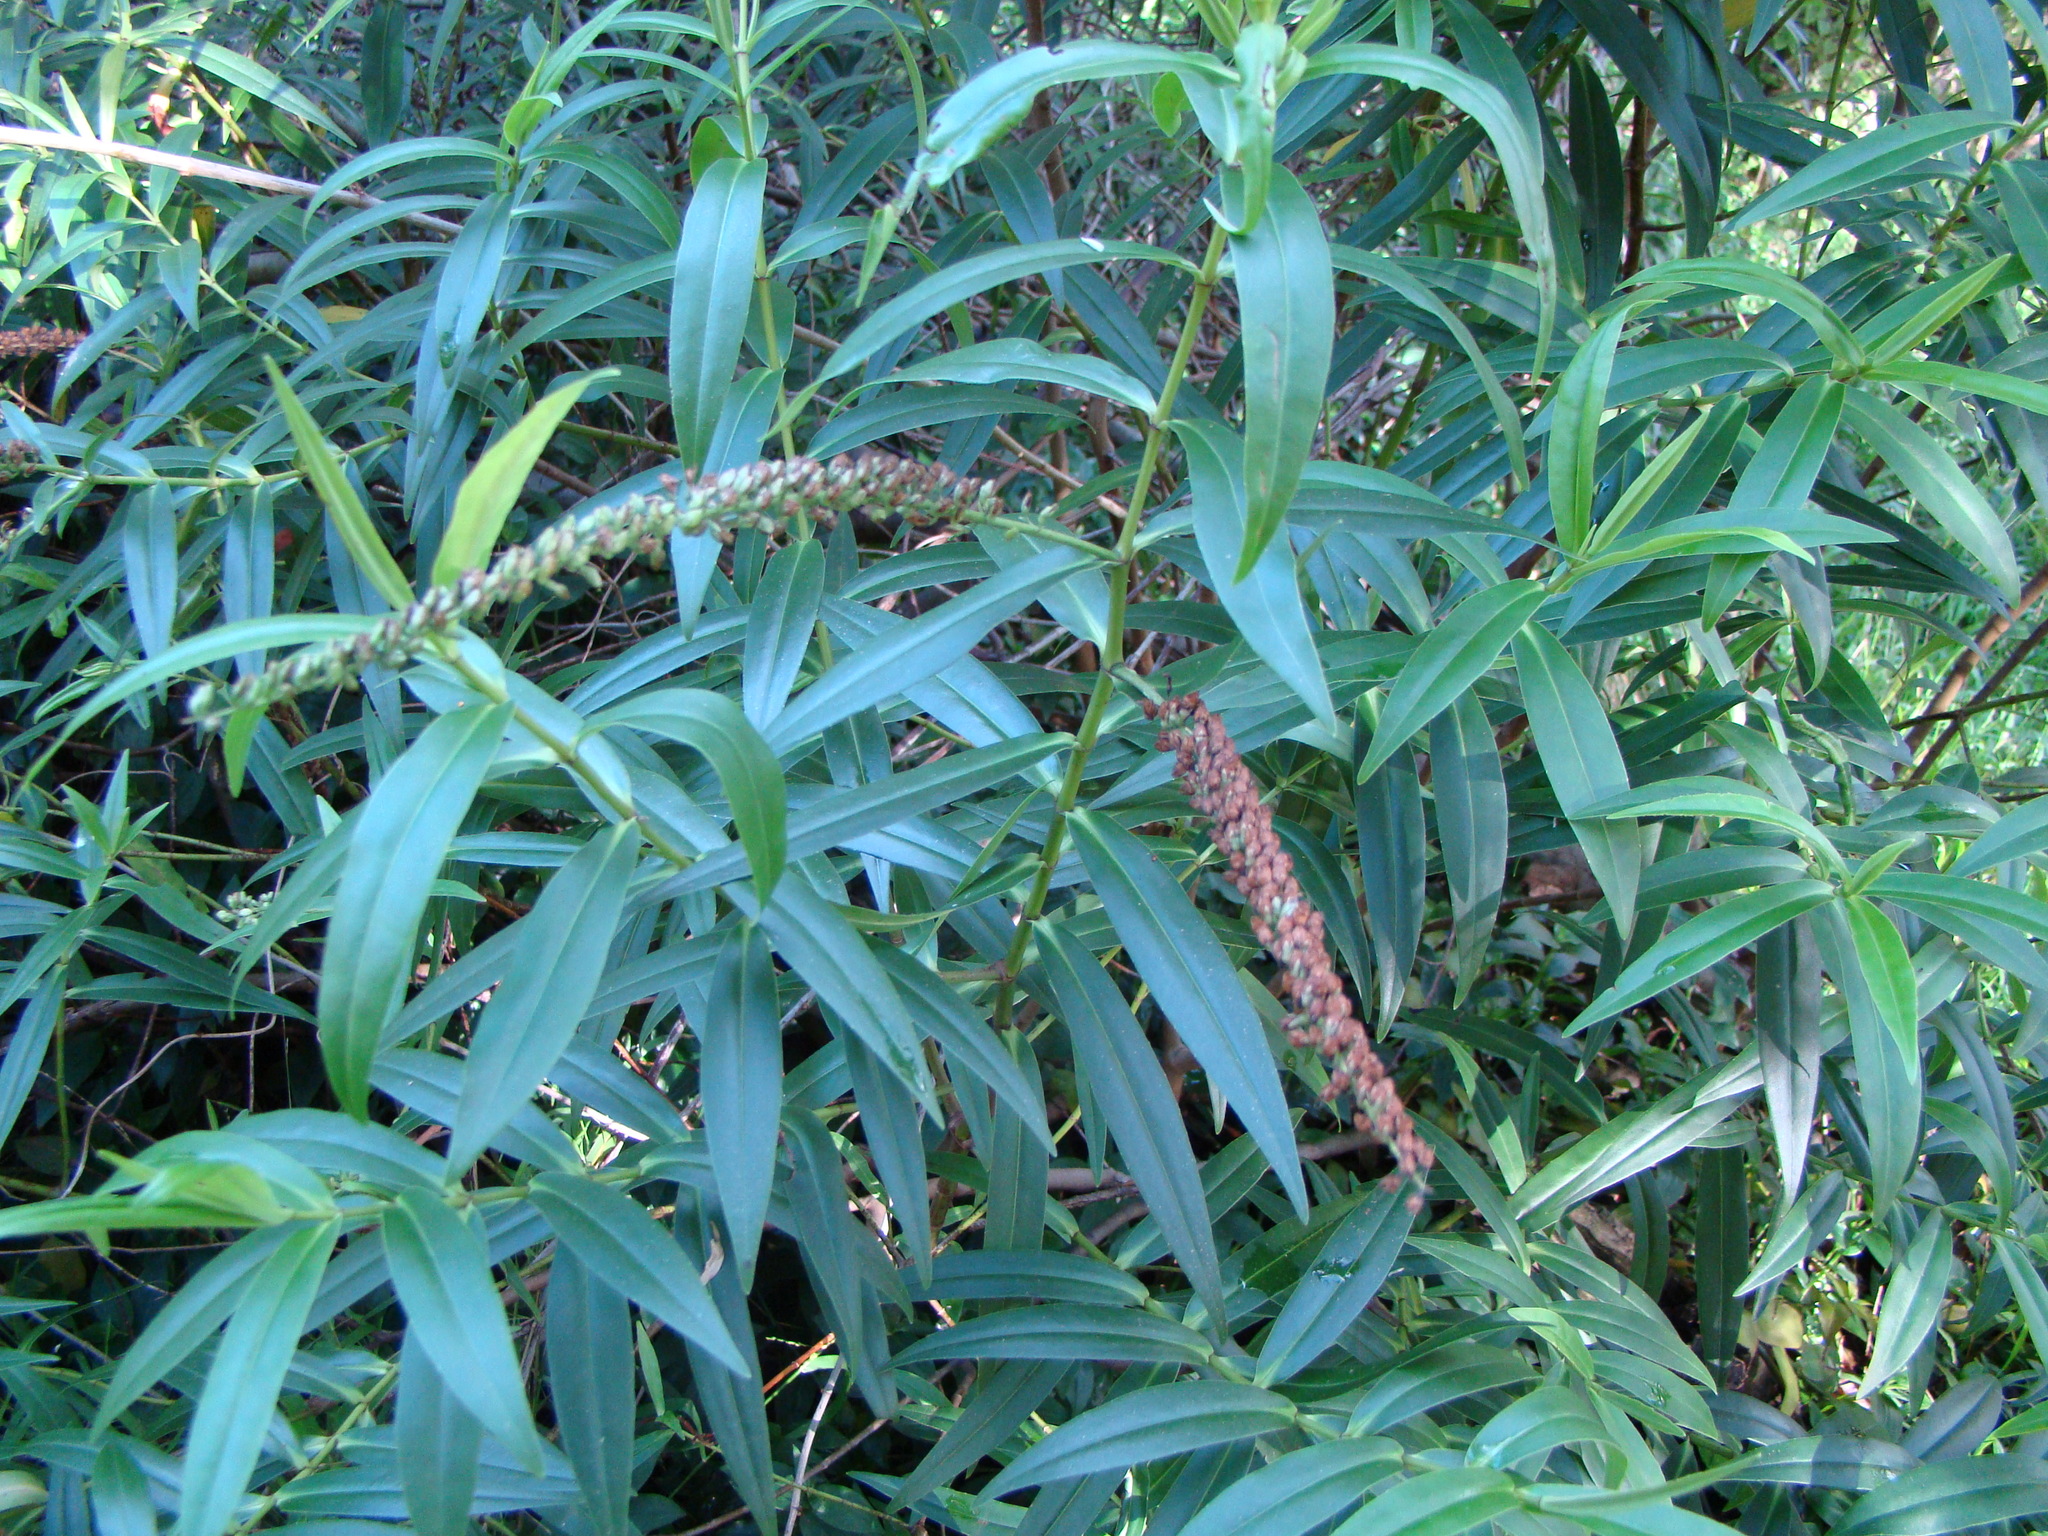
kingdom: Plantae
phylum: Tracheophyta
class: Magnoliopsida
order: Lamiales
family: Plantaginaceae
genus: Veronica
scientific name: Veronica stricta
